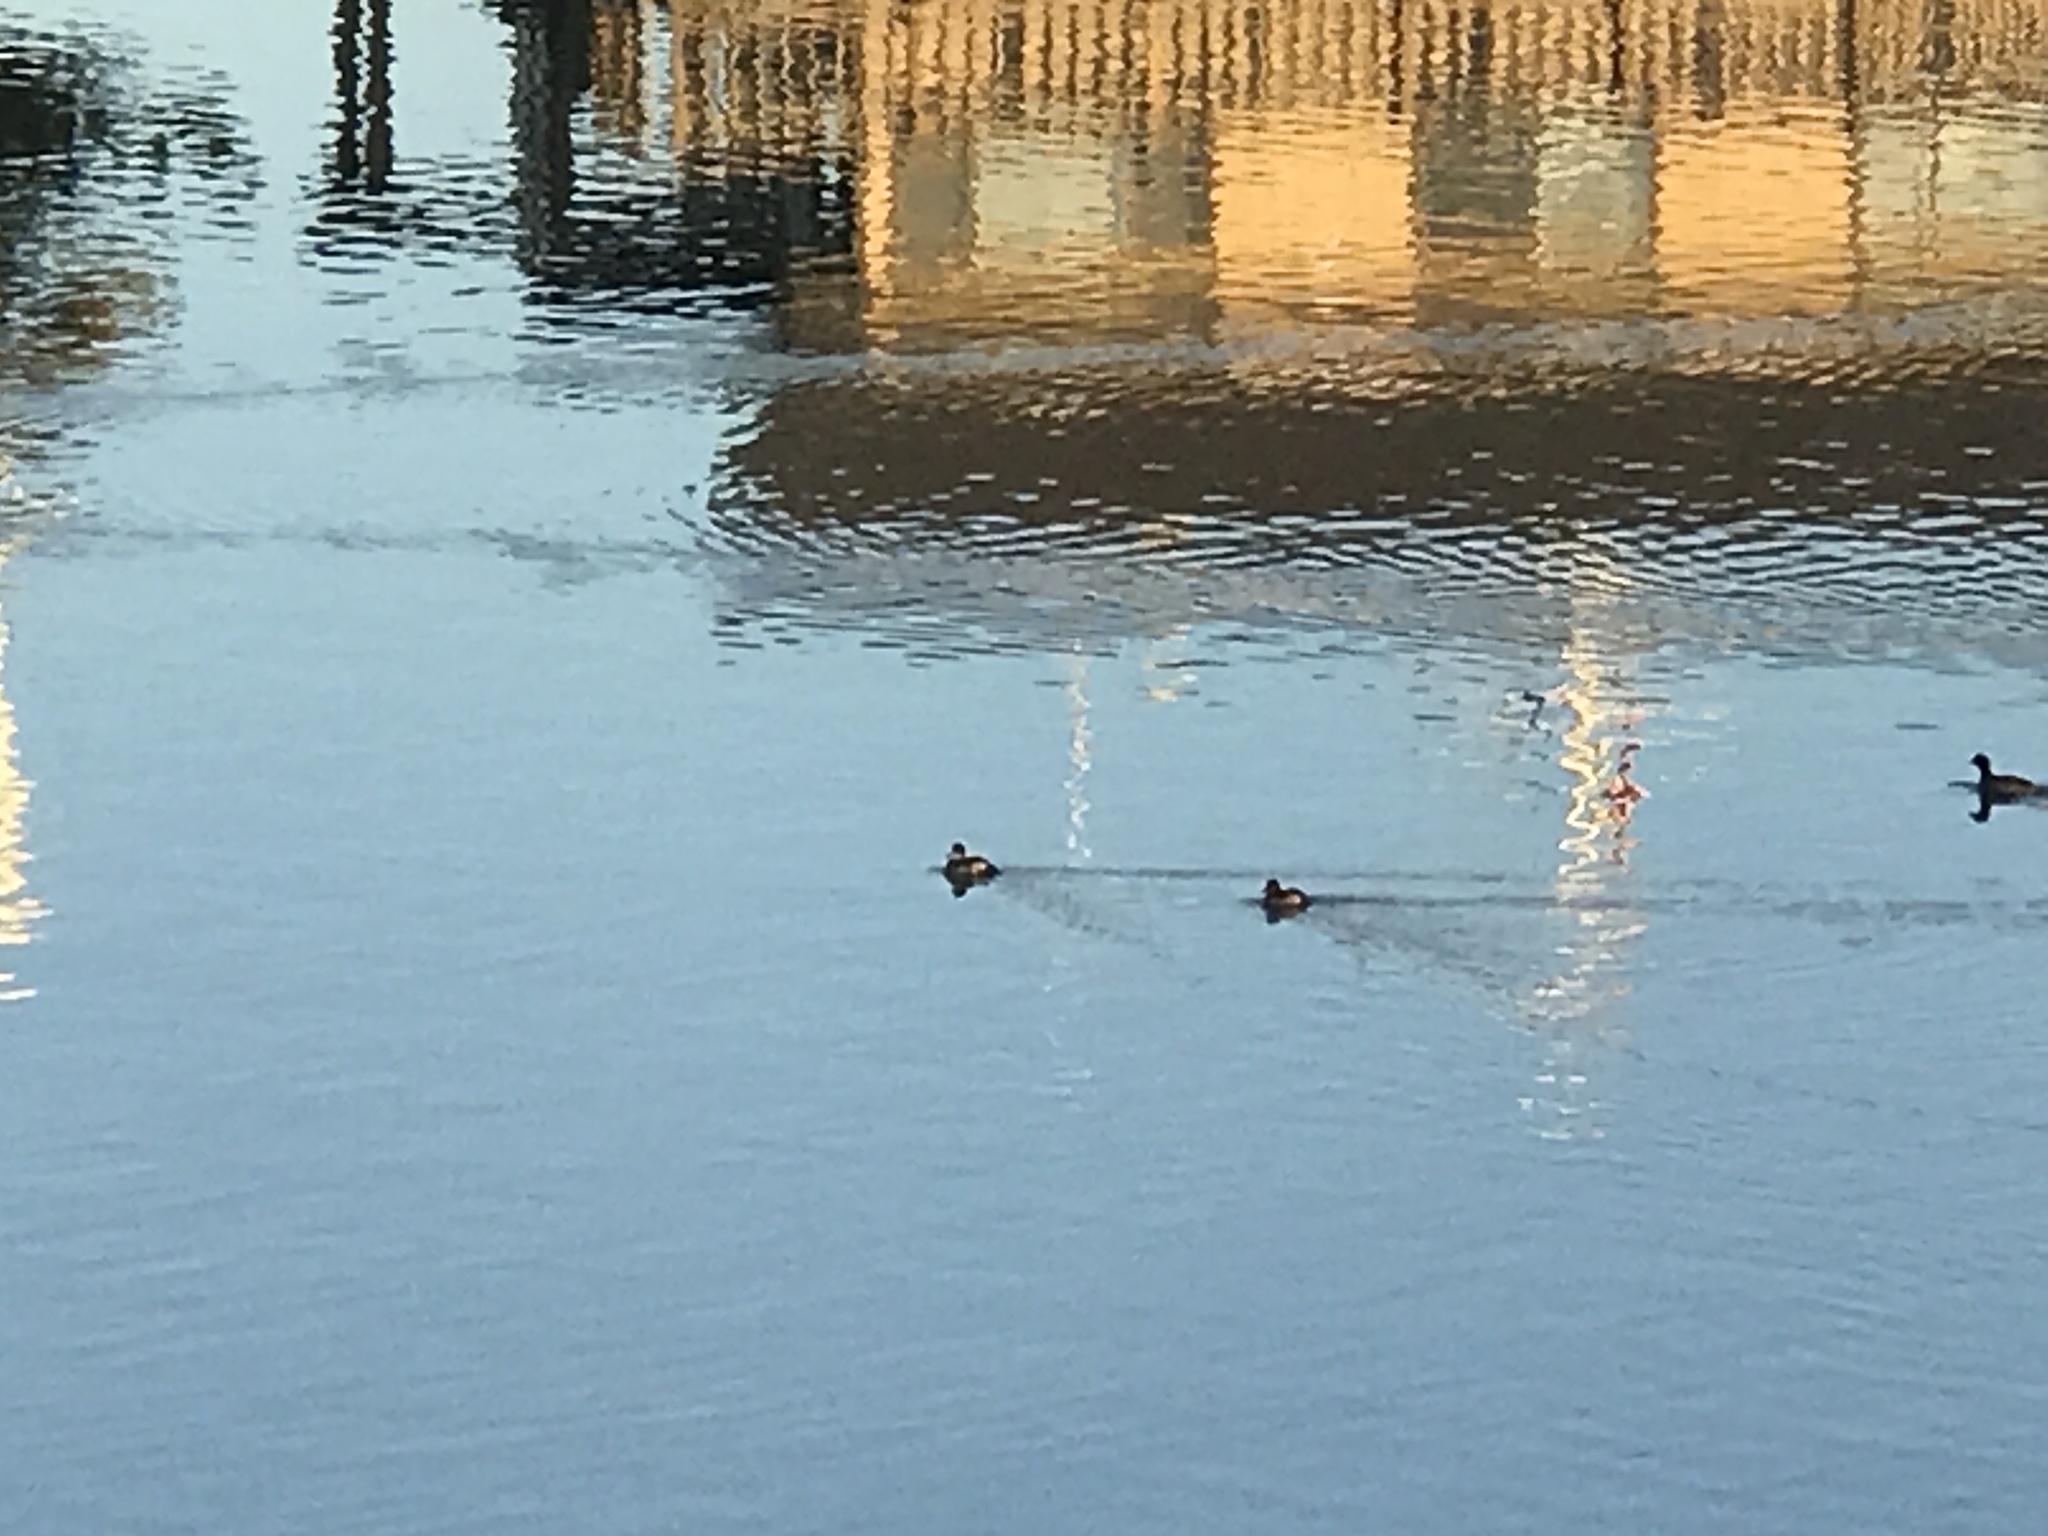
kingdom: Animalia
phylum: Chordata
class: Aves
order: Anseriformes
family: Anatidae
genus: Oxyura
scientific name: Oxyura jamaicensis
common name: Ruddy duck
